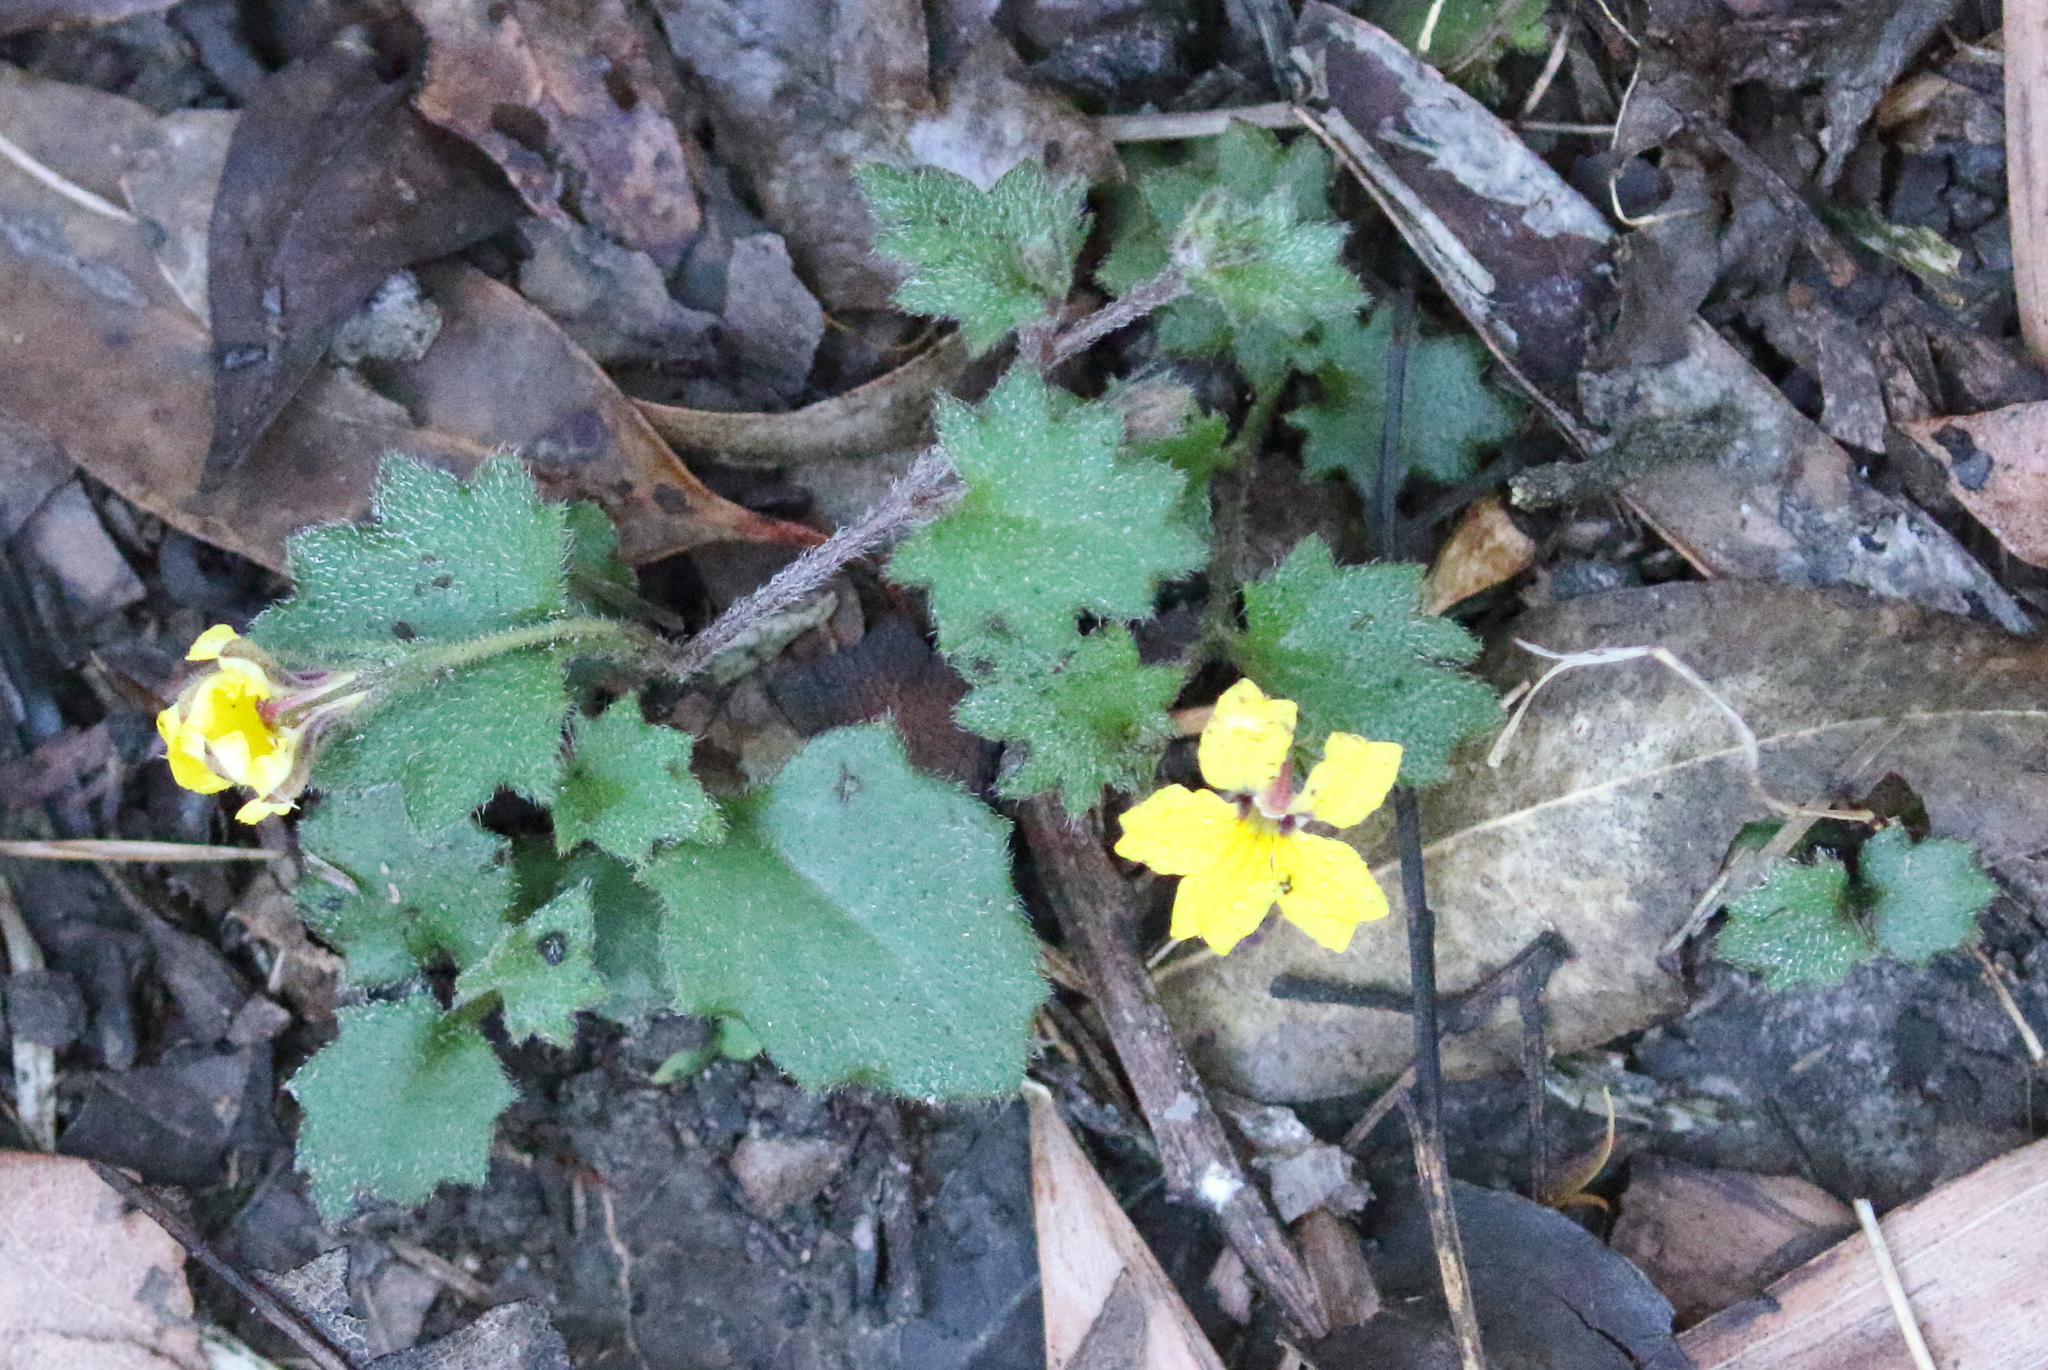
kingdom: Plantae
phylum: Tracheophyta
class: Magnoliopsida
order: Asterales
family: Goodeniaceae
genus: Goodenia
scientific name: Goodenia rotundifolia
